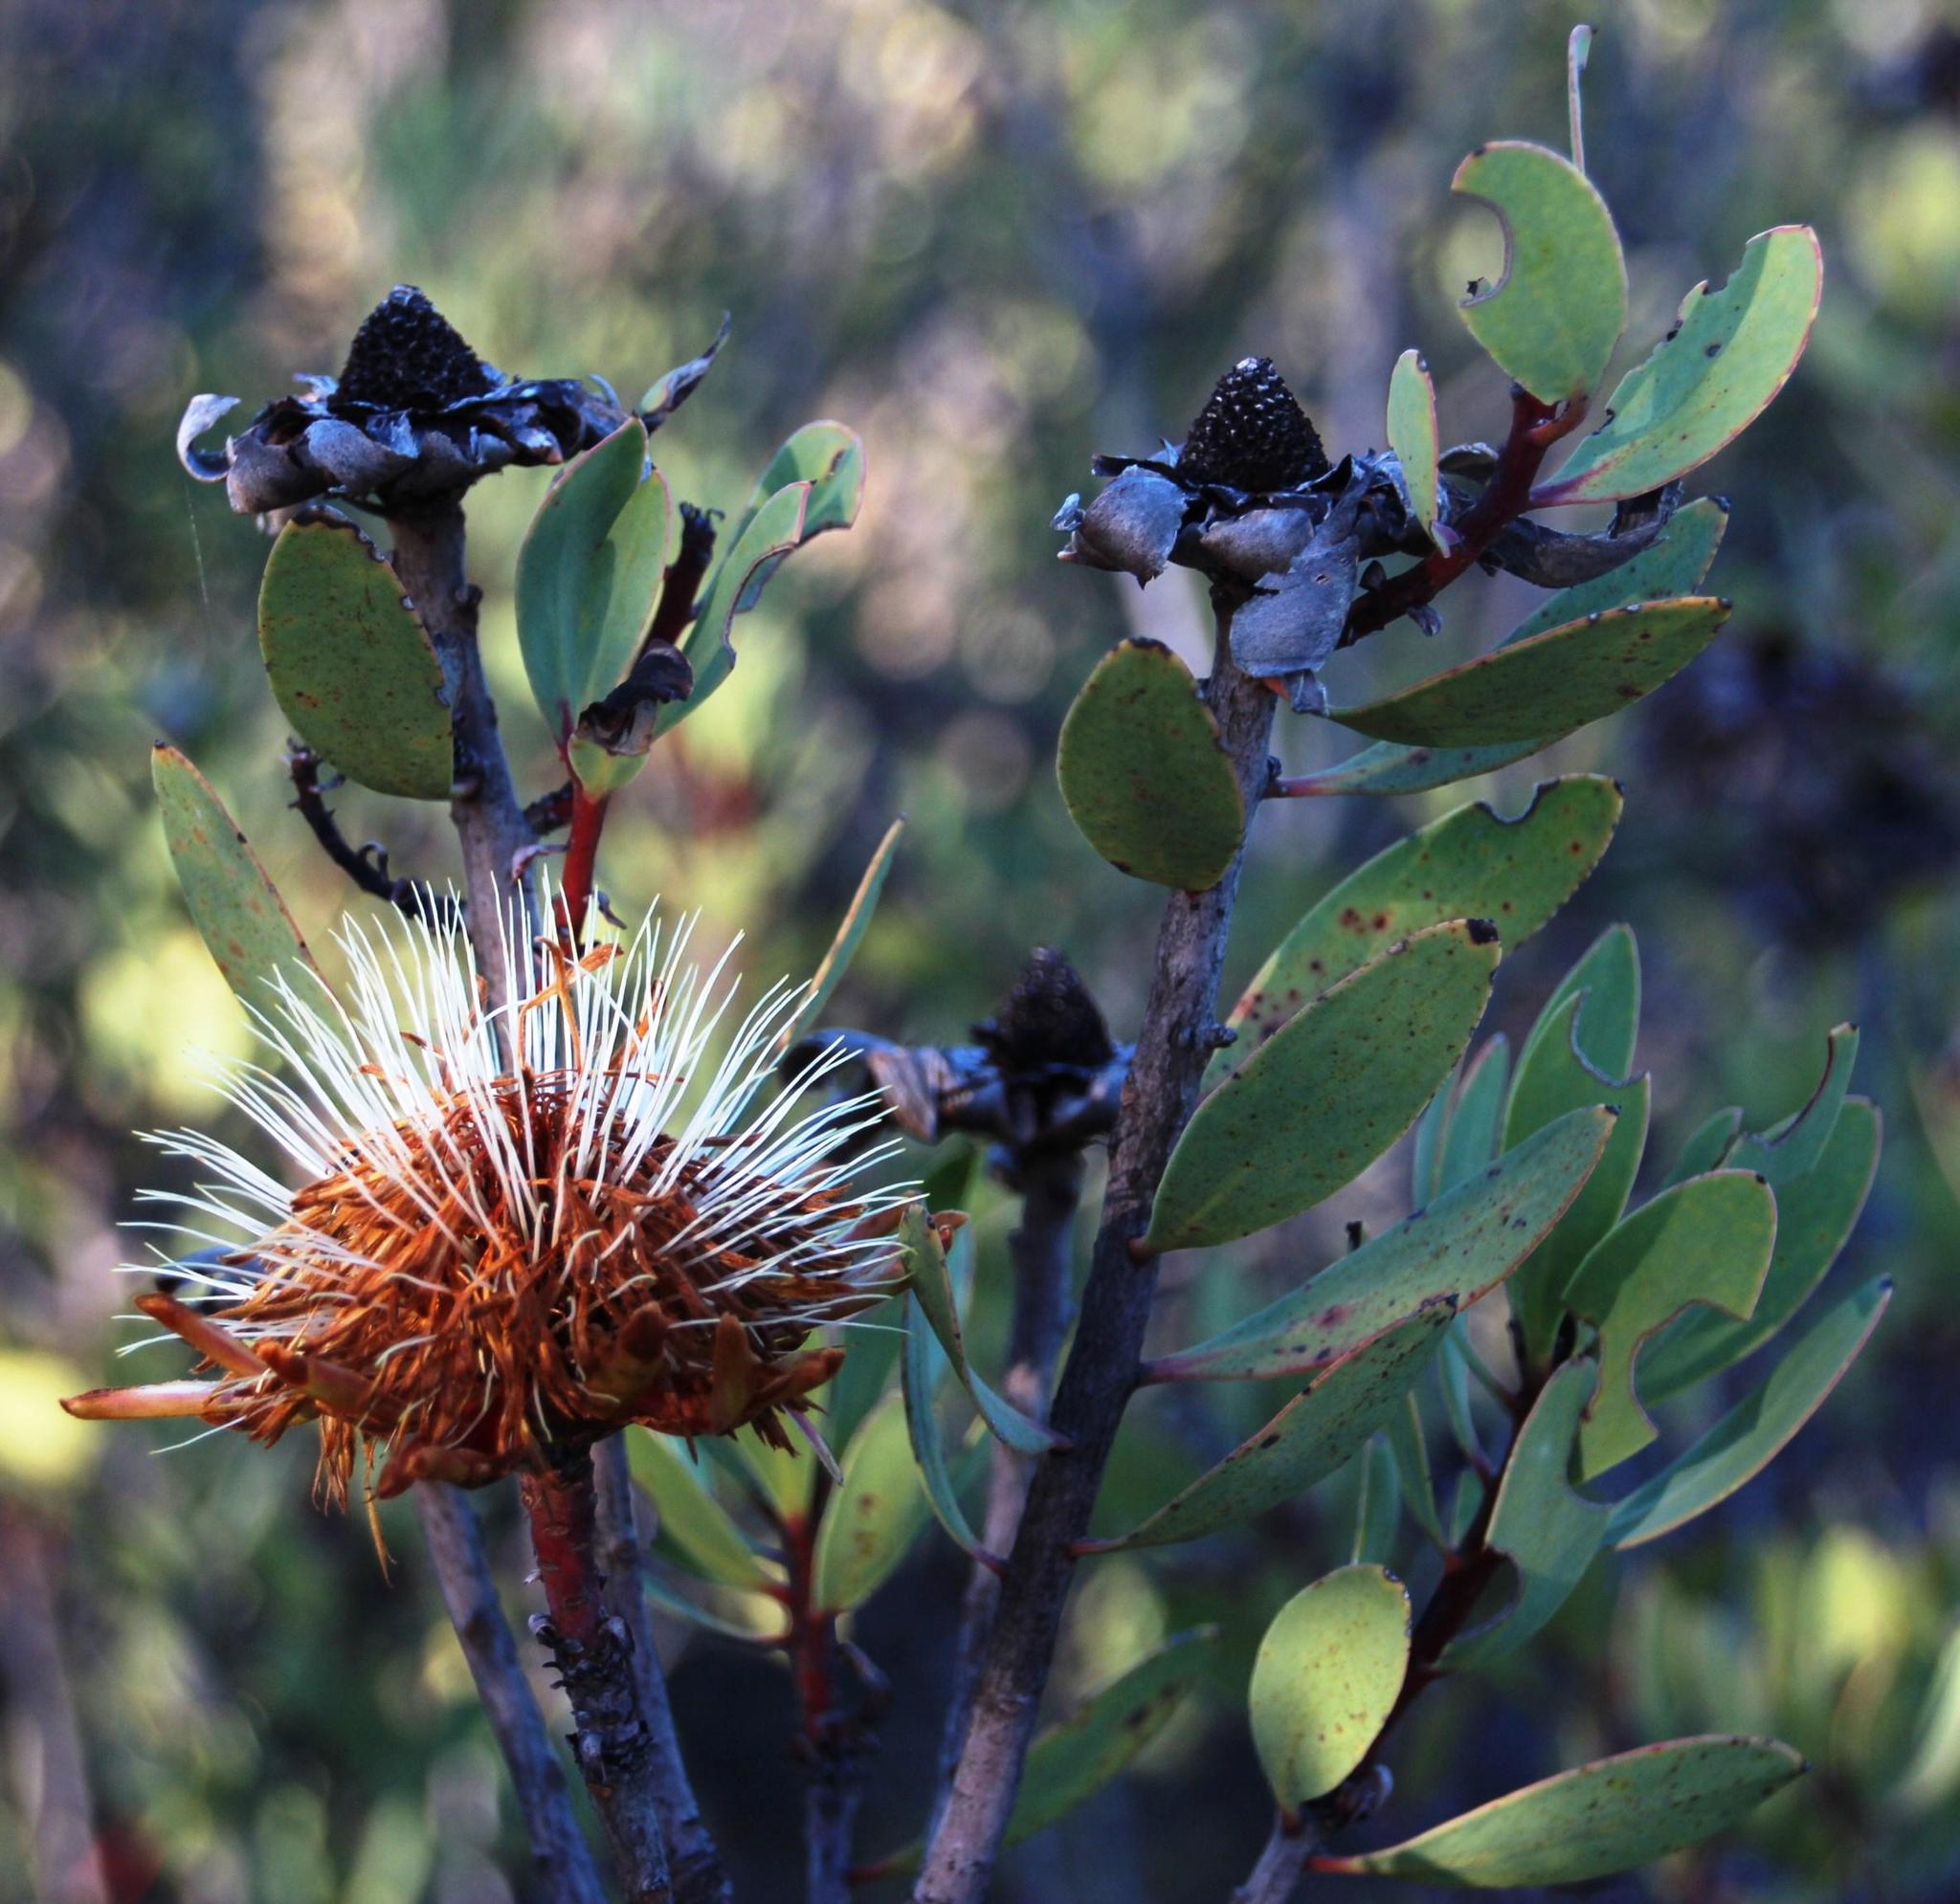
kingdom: Plantae
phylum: Tracheophyta
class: Magnoliopsida
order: Proteales
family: Proteaceae
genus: Protea
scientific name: Protea glabra
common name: Chestnut sugarbush
